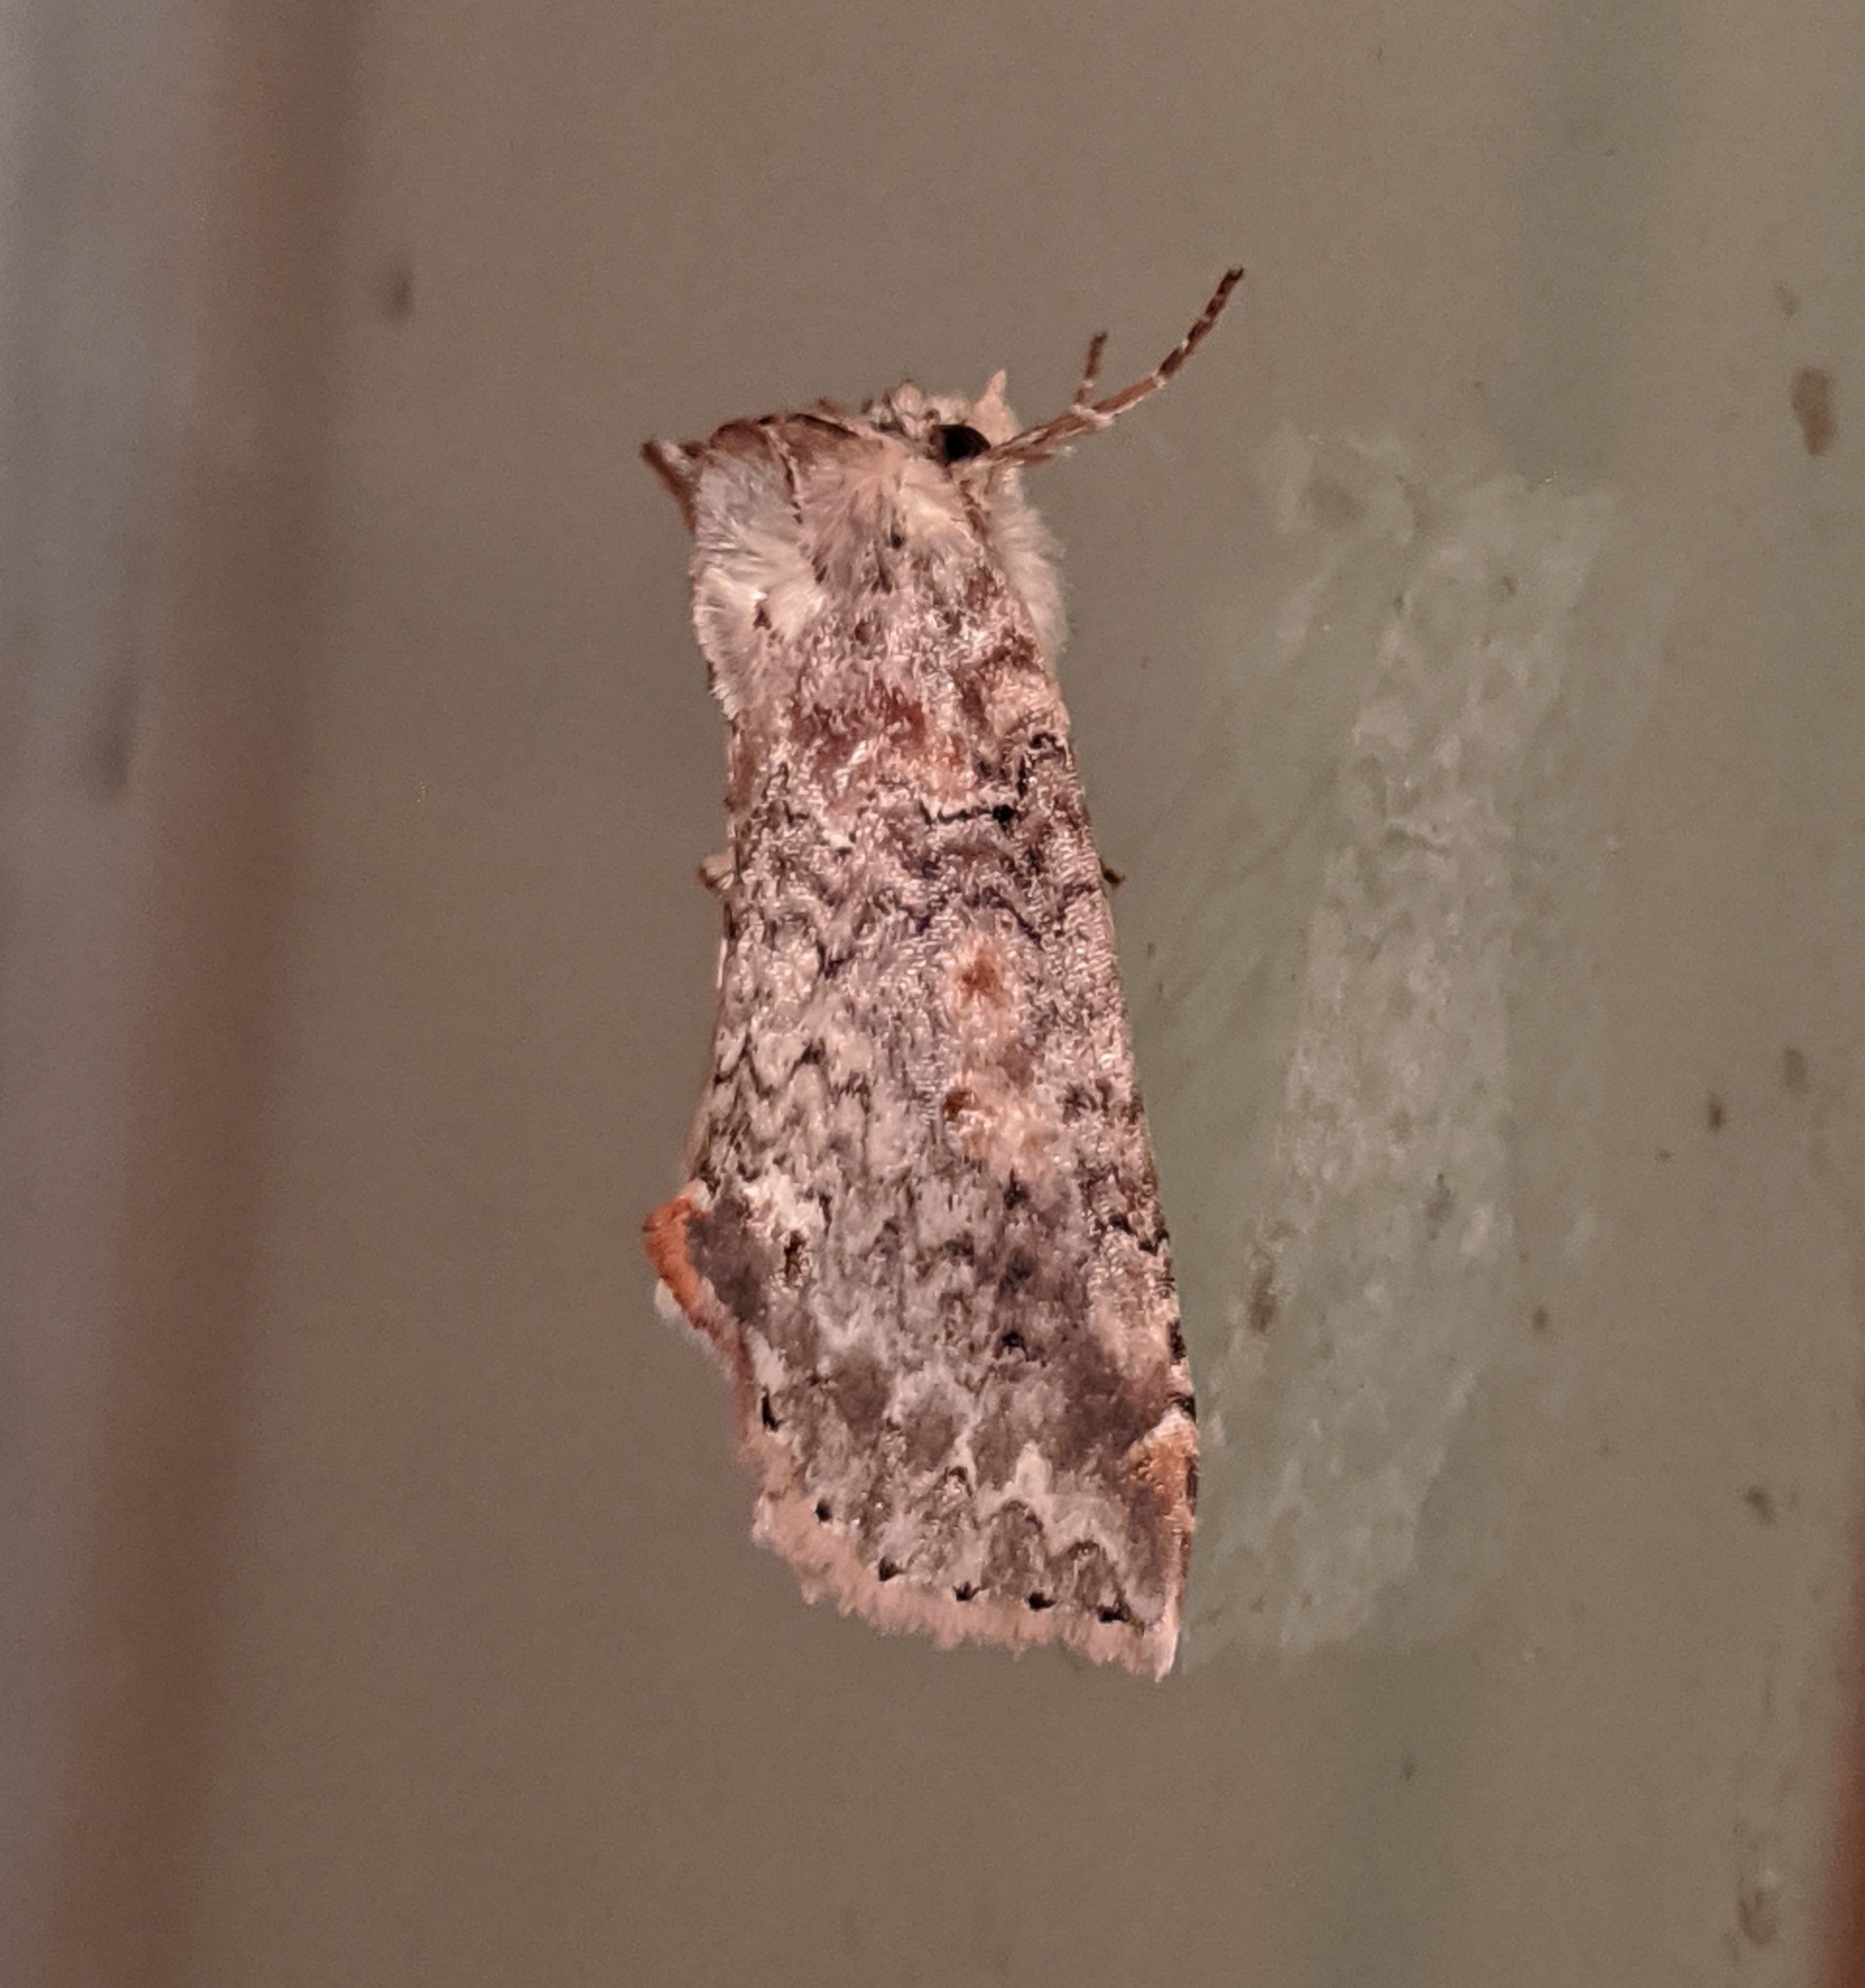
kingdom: Animalia
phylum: Arthropoda
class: Insecta
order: Lepidoptera
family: Drepanidae
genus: Pseudothyatira
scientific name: Pseudothyatira cymatophoroides
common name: Tufted thyatirid moth
